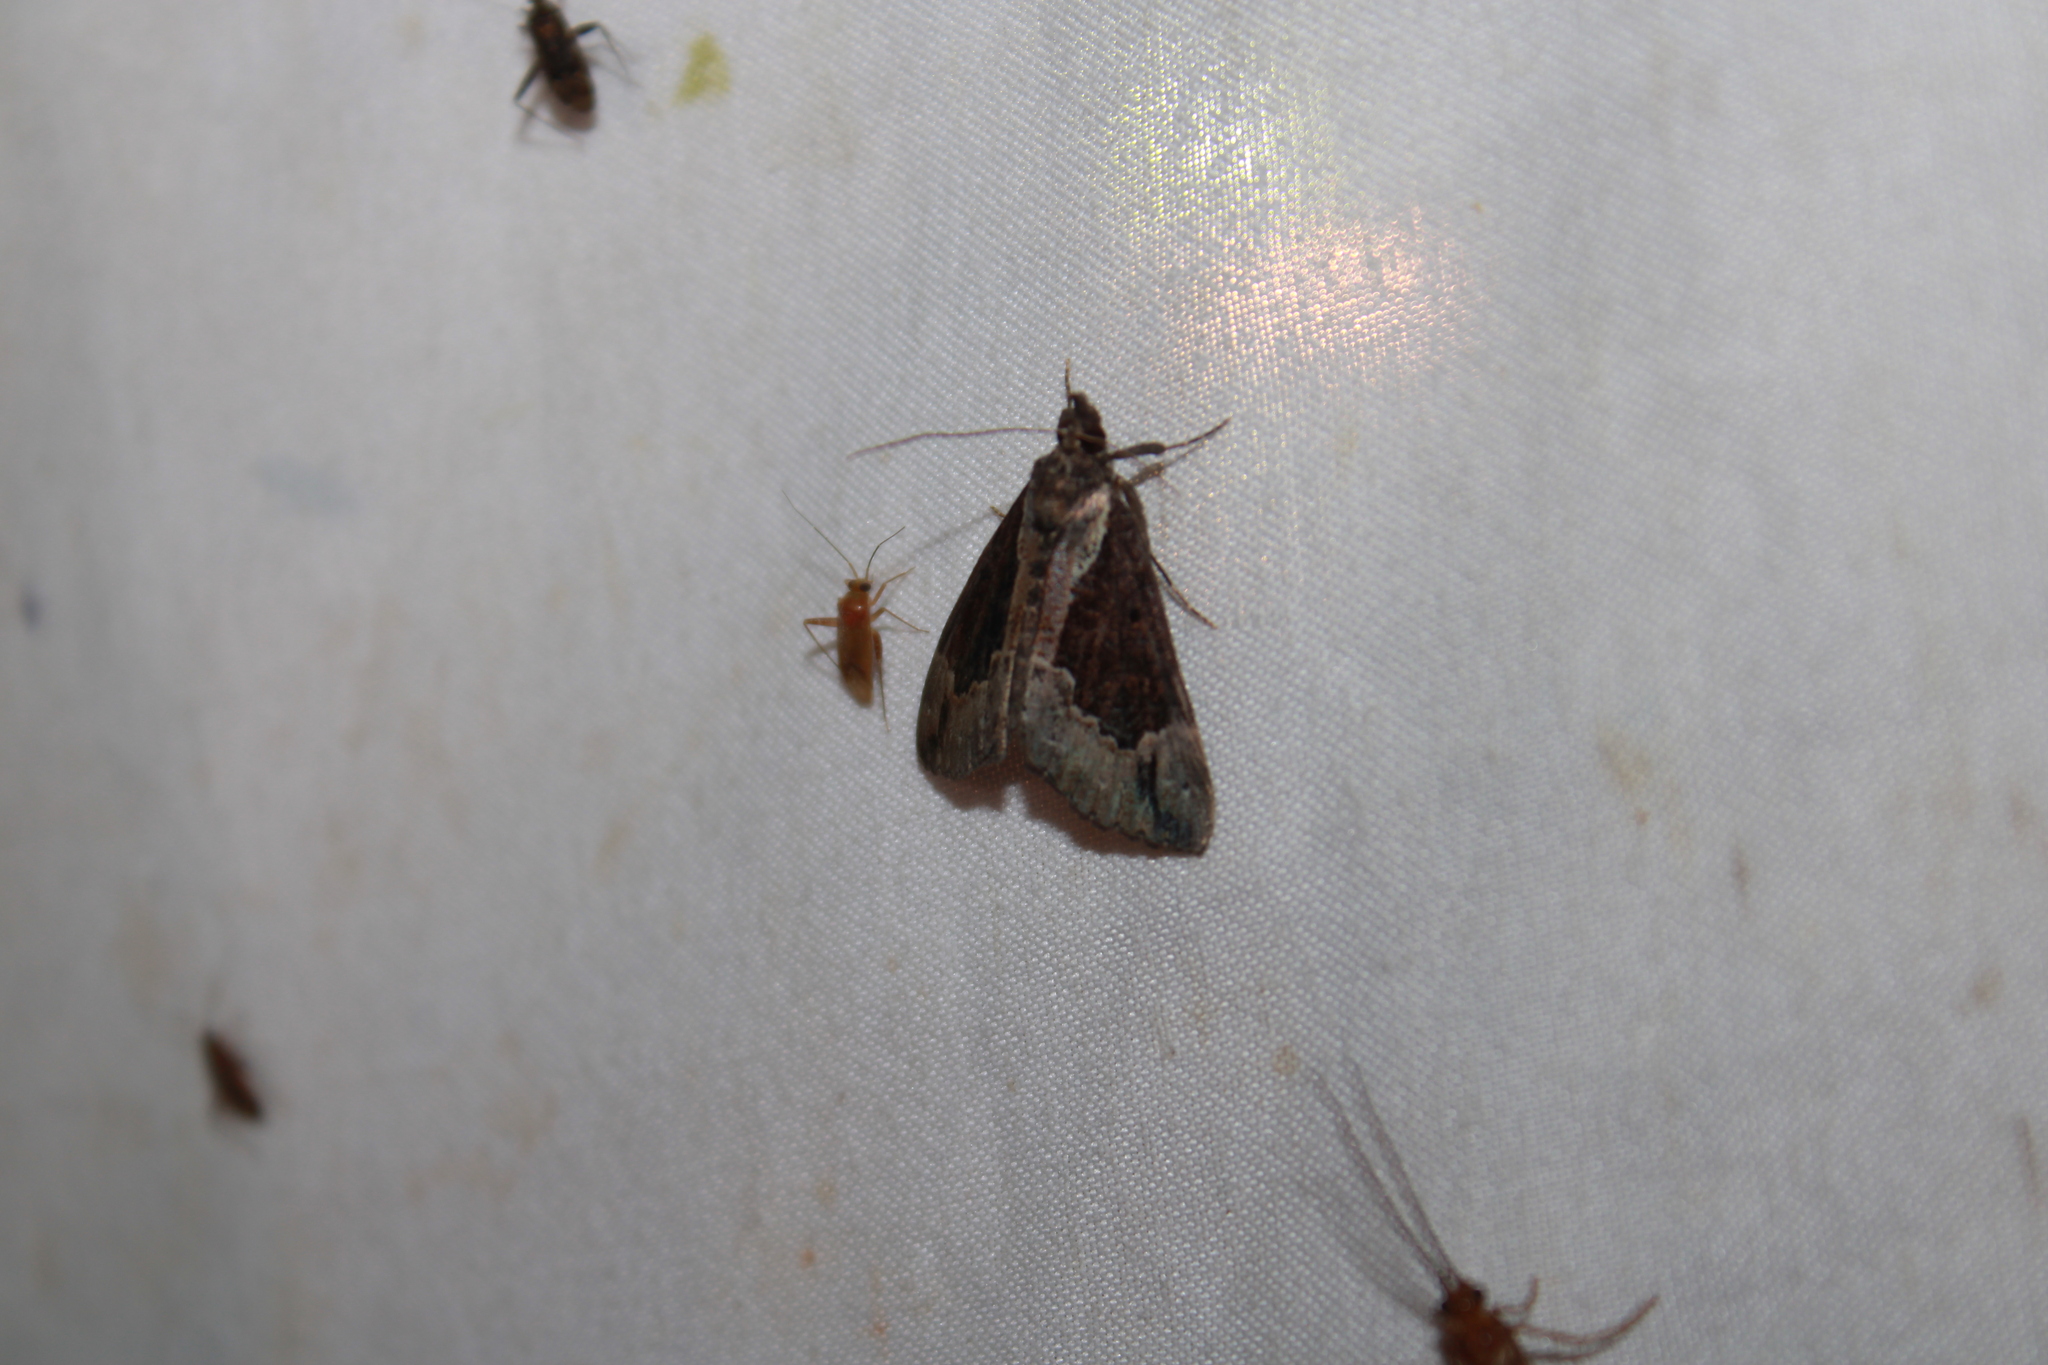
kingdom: Animalia
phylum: Arthropoda
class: Insecta
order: Lepidoptera
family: Erebidae
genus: Hypena
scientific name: Hypena baltimoralis
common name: Baltimore snout
